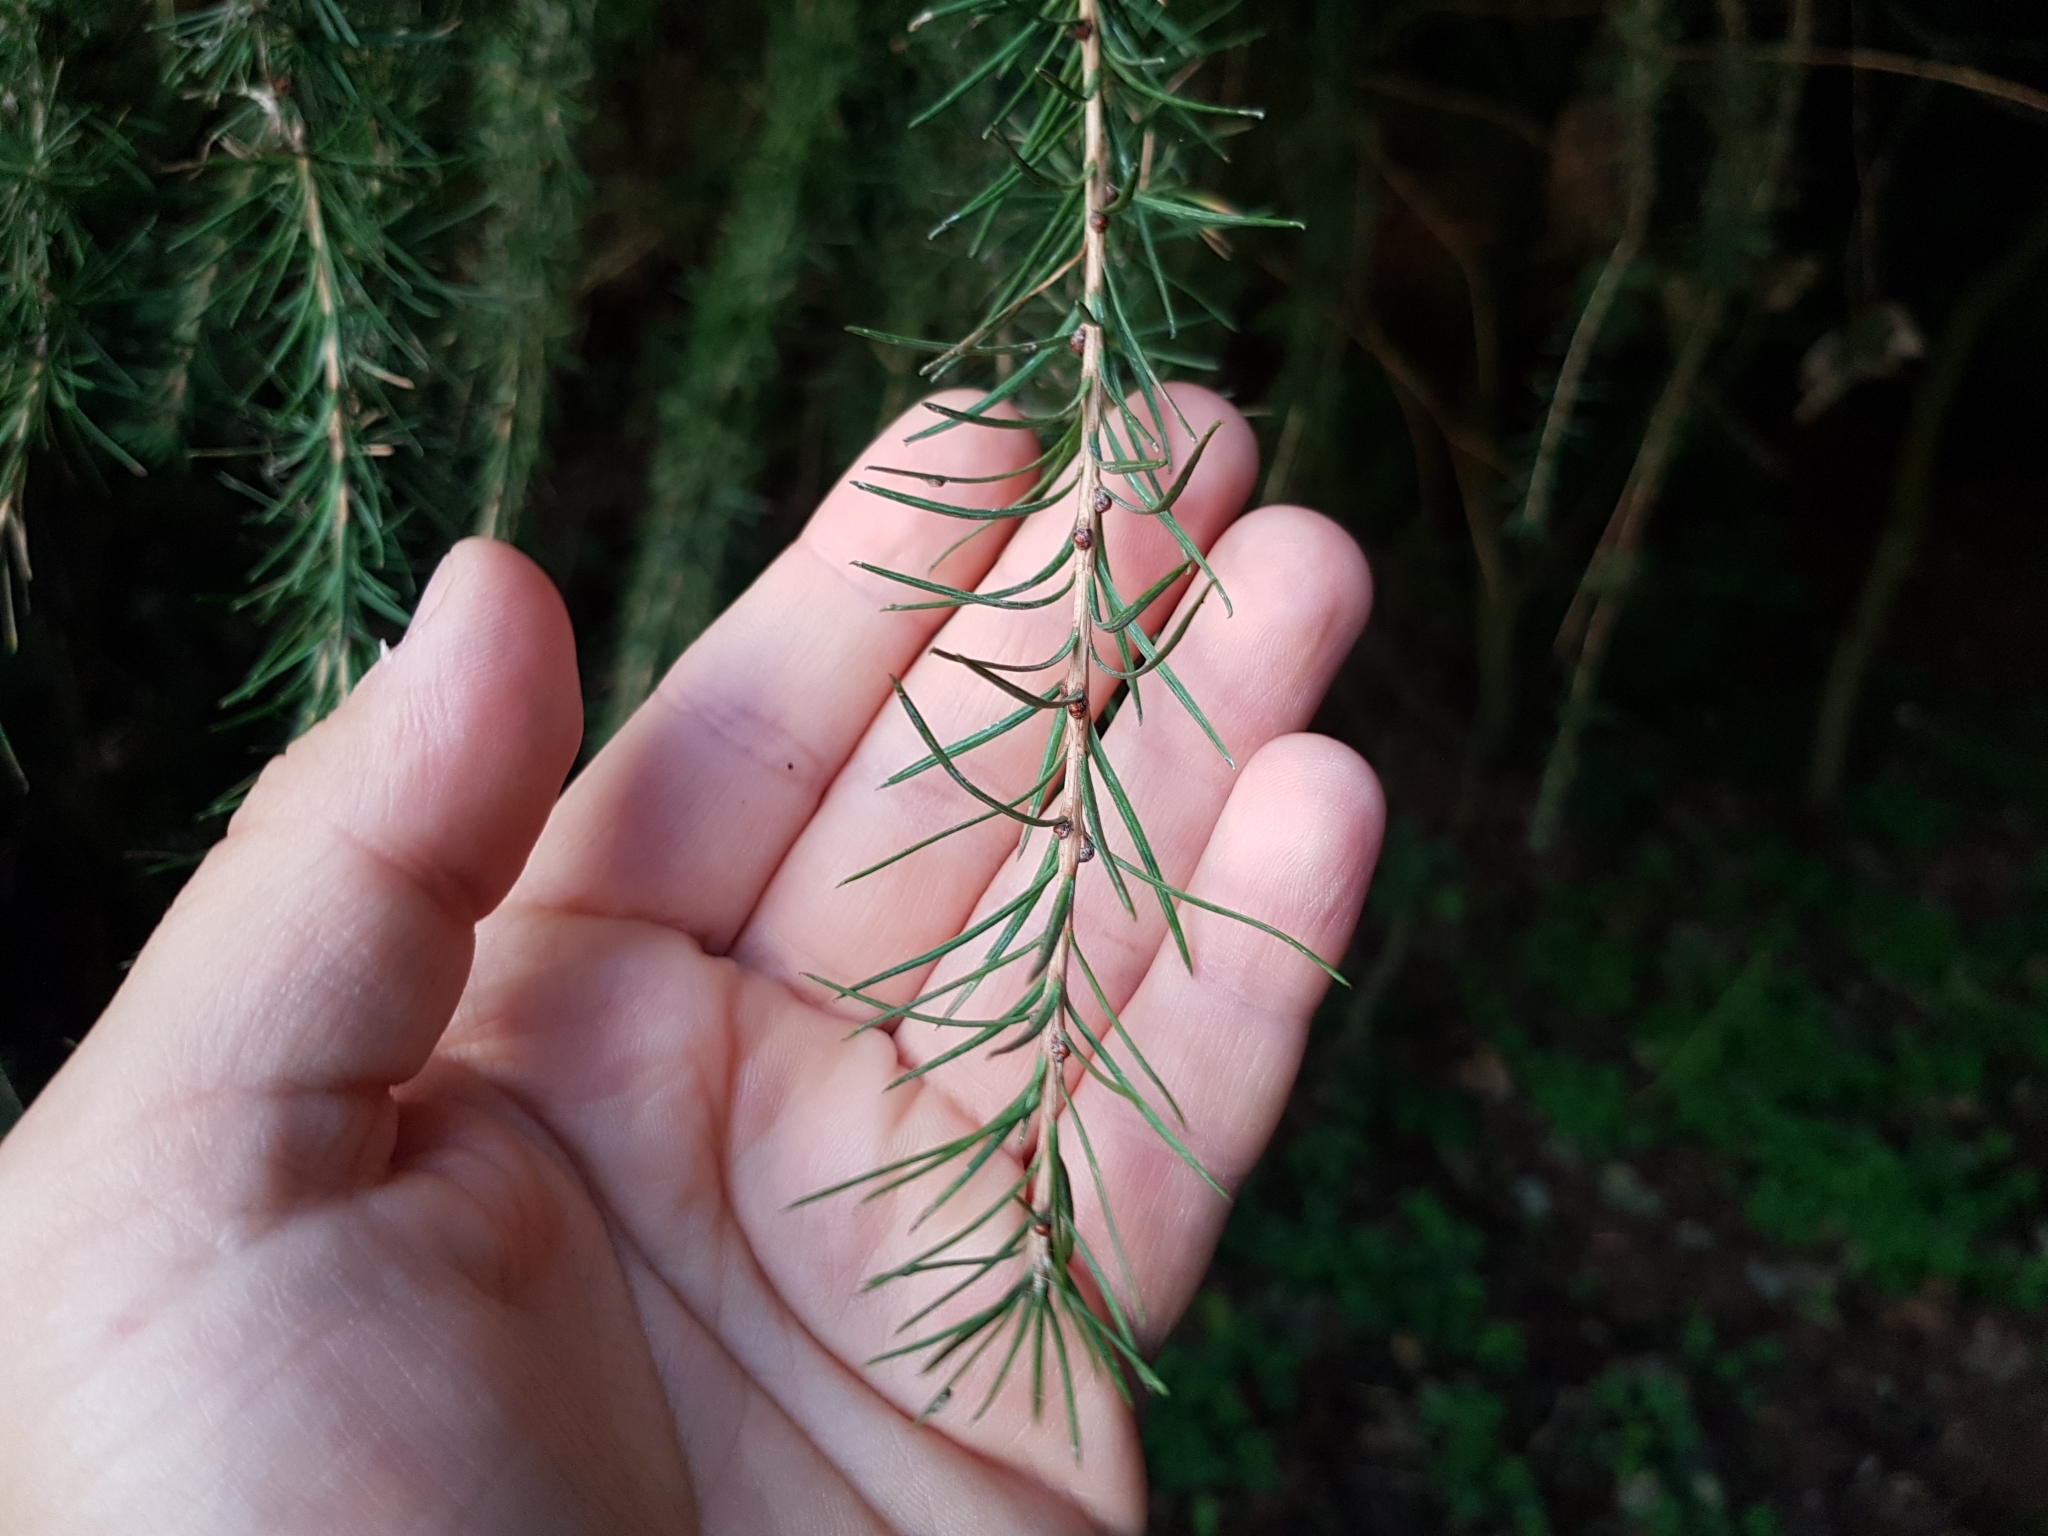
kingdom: Plantae
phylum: Tracheophyta
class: Pinopsida
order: Pinales
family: Pinaceae
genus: Larix
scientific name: Larix decidua
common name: European larch
